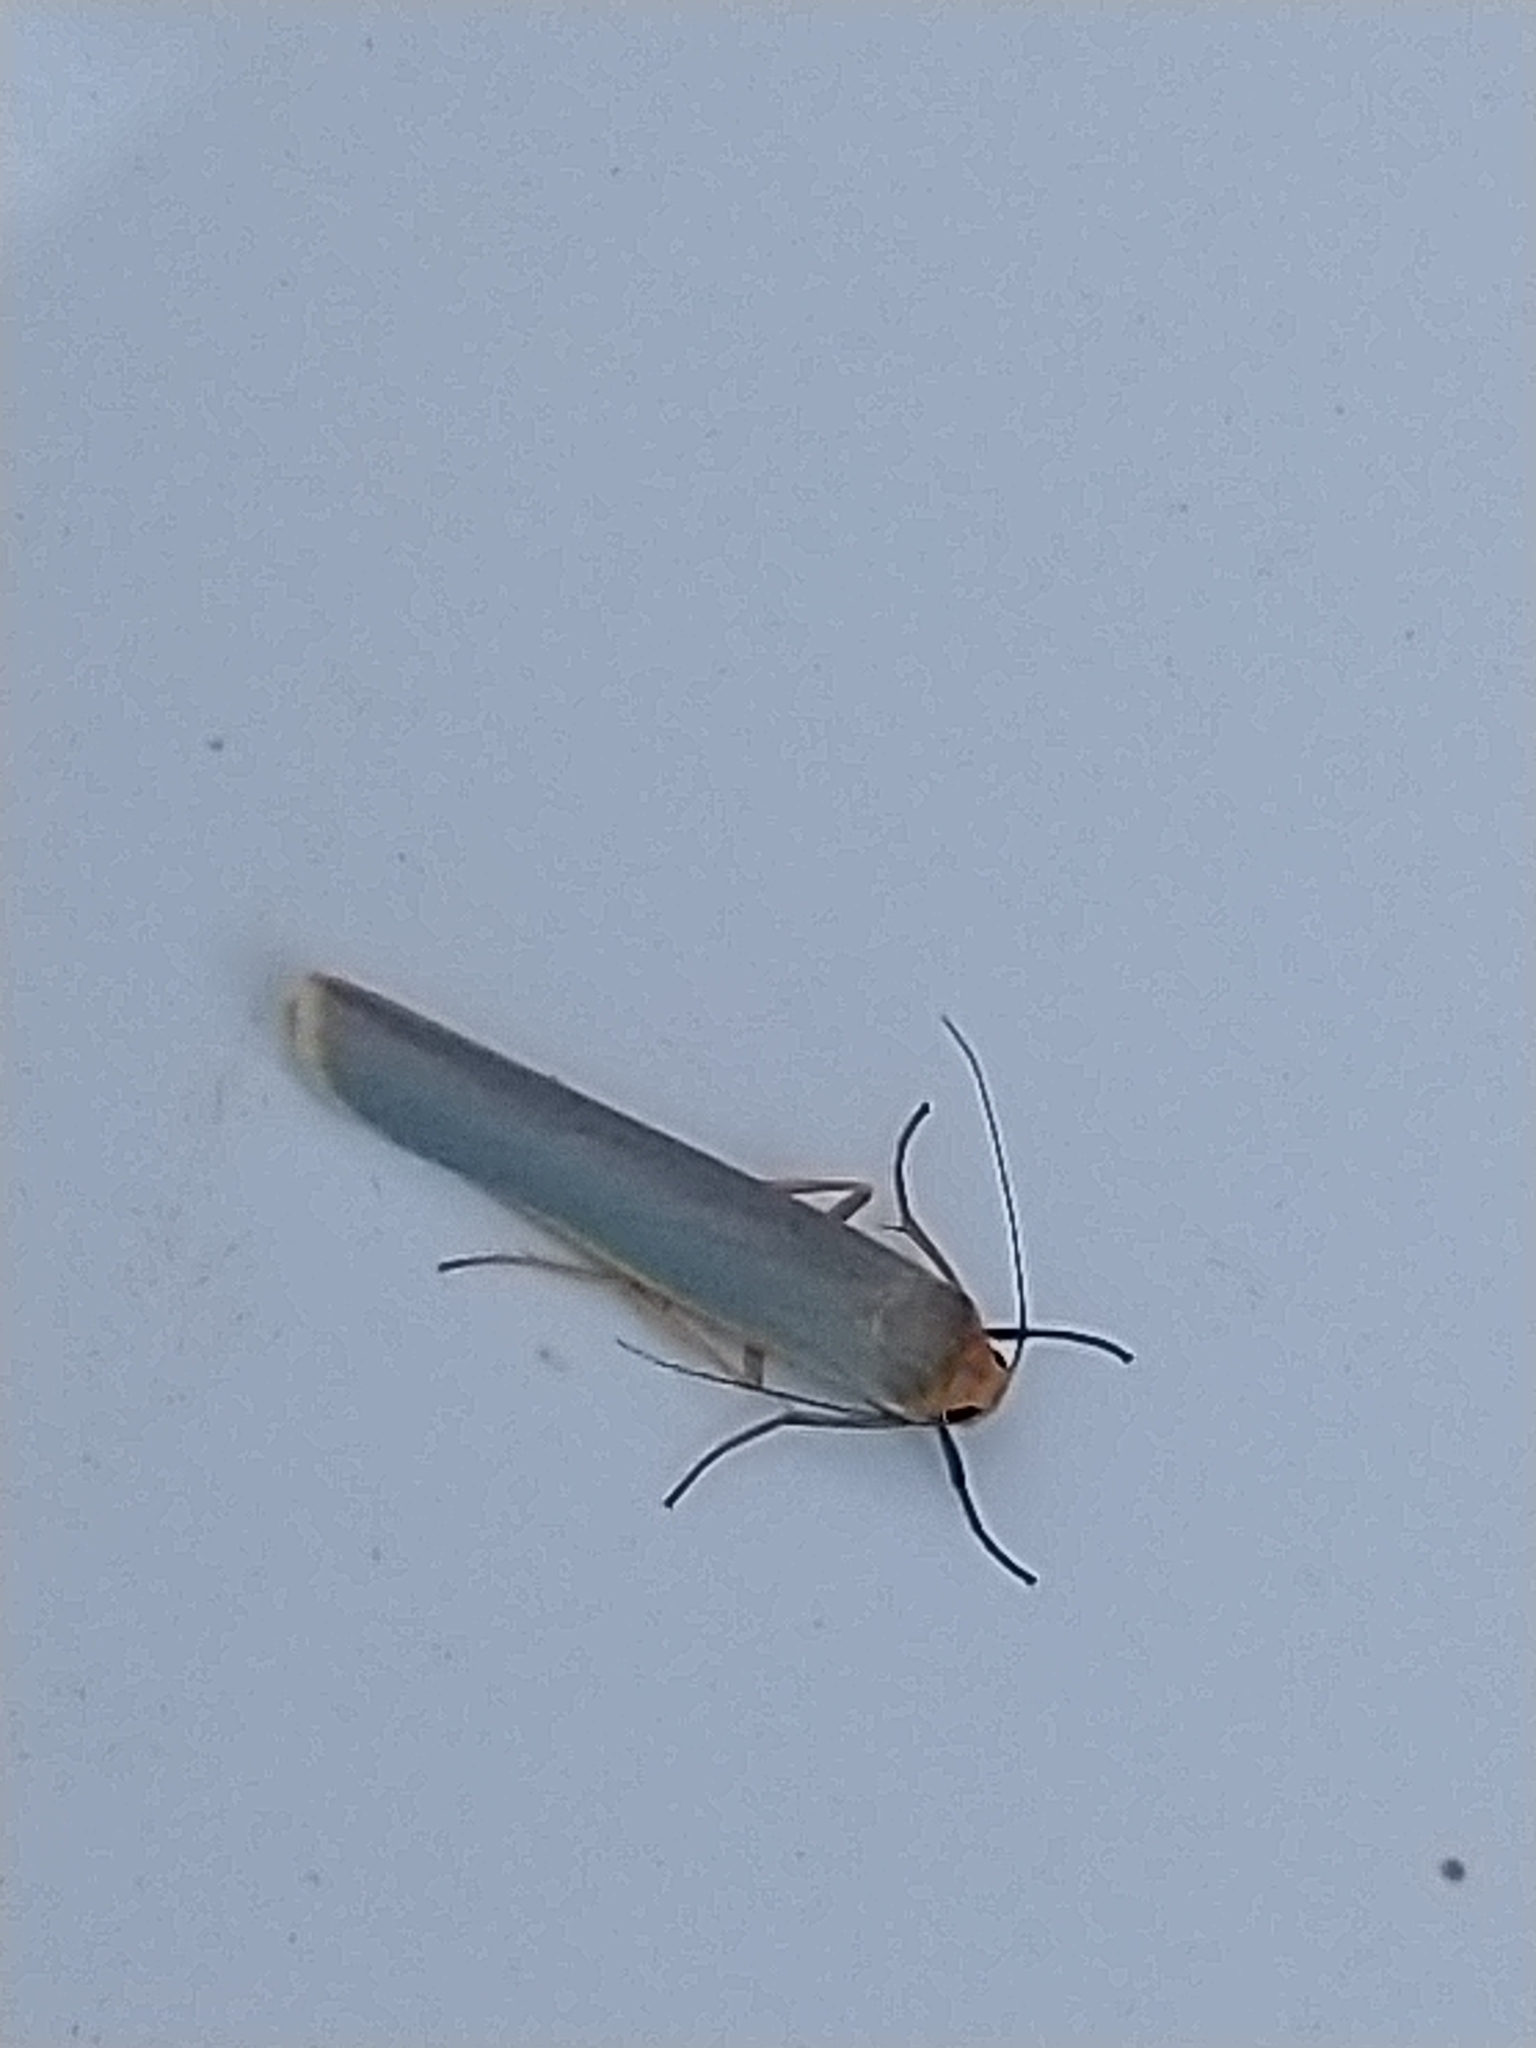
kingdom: Animalia
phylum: Arthropoda
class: Insecta
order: Lepidoptera
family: Erebidae
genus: Manulea
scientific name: Manulea complana
